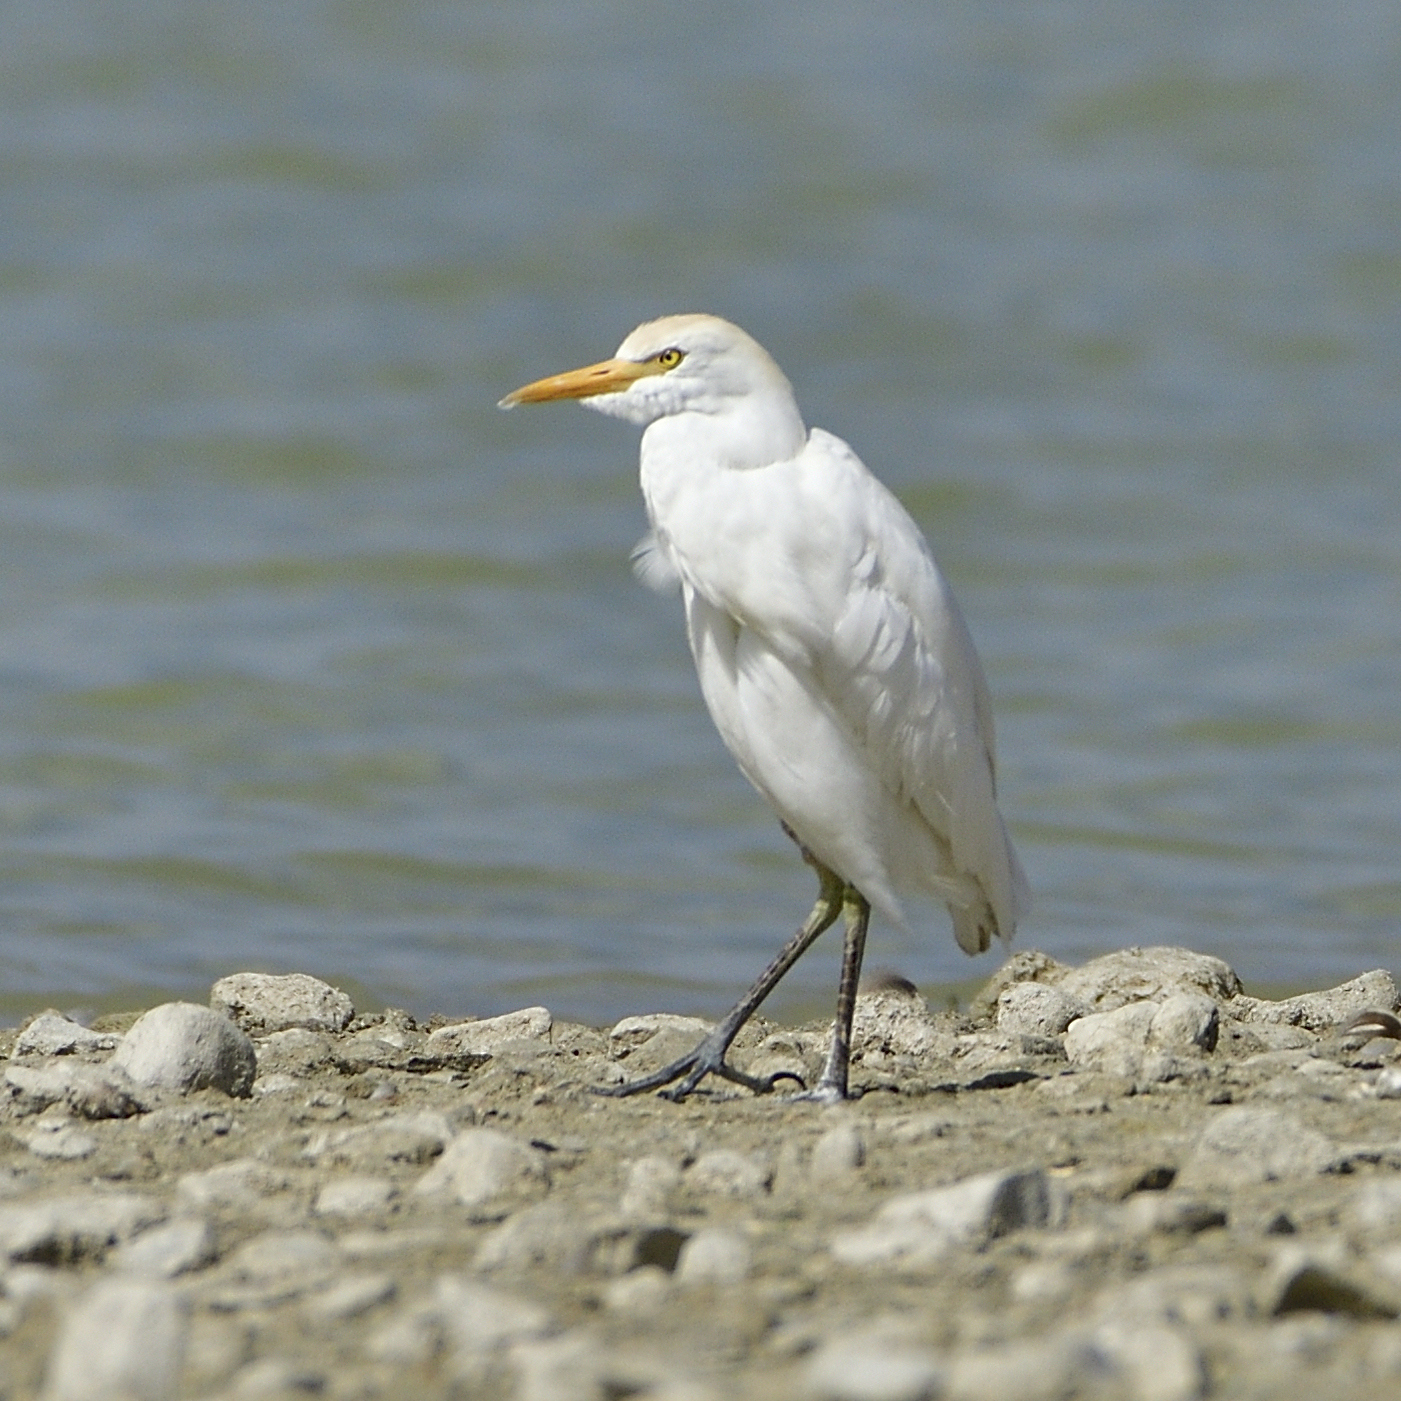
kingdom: Animalia
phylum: Chordata
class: Aves
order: Pelecaniformes
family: Ardeidae
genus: Bubulcus
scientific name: Bubulcus ibis
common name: Cattle egret
